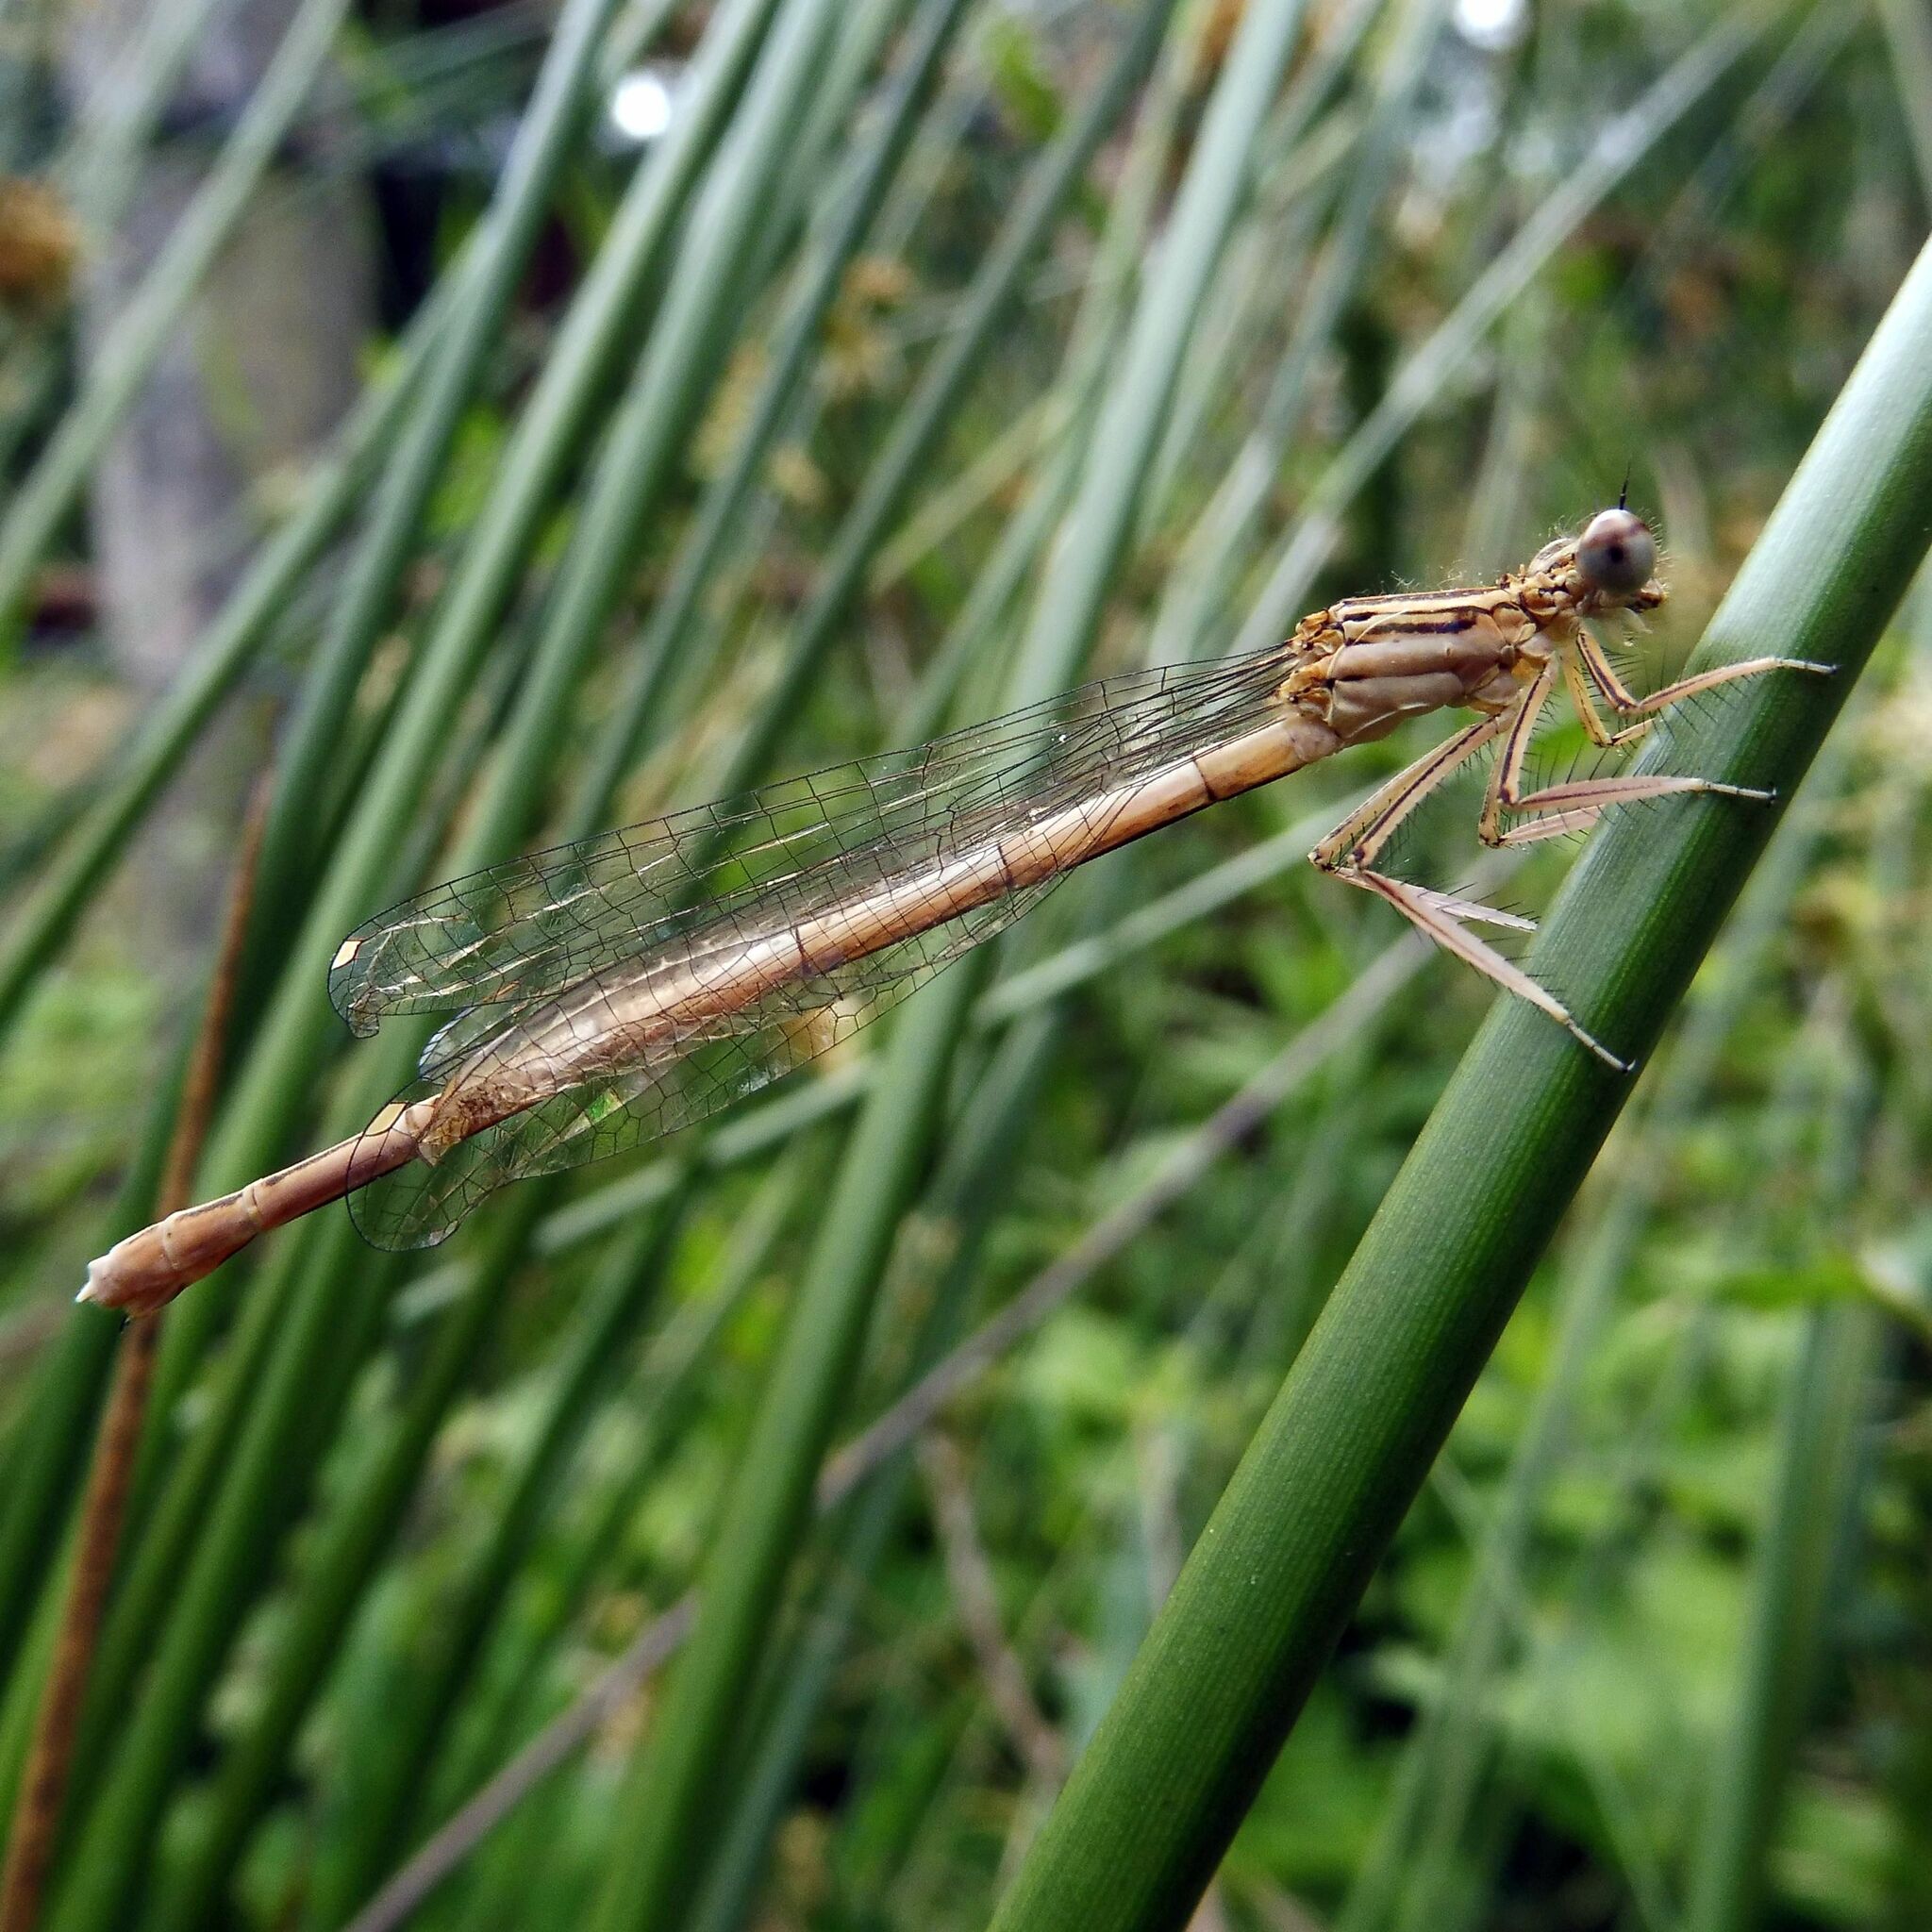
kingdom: Animalia
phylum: Arthropoda
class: Insecta
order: Odonata
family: Platycnemididae
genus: Platycnemis
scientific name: Platycnemis pennipes
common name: White-legged damselfly
